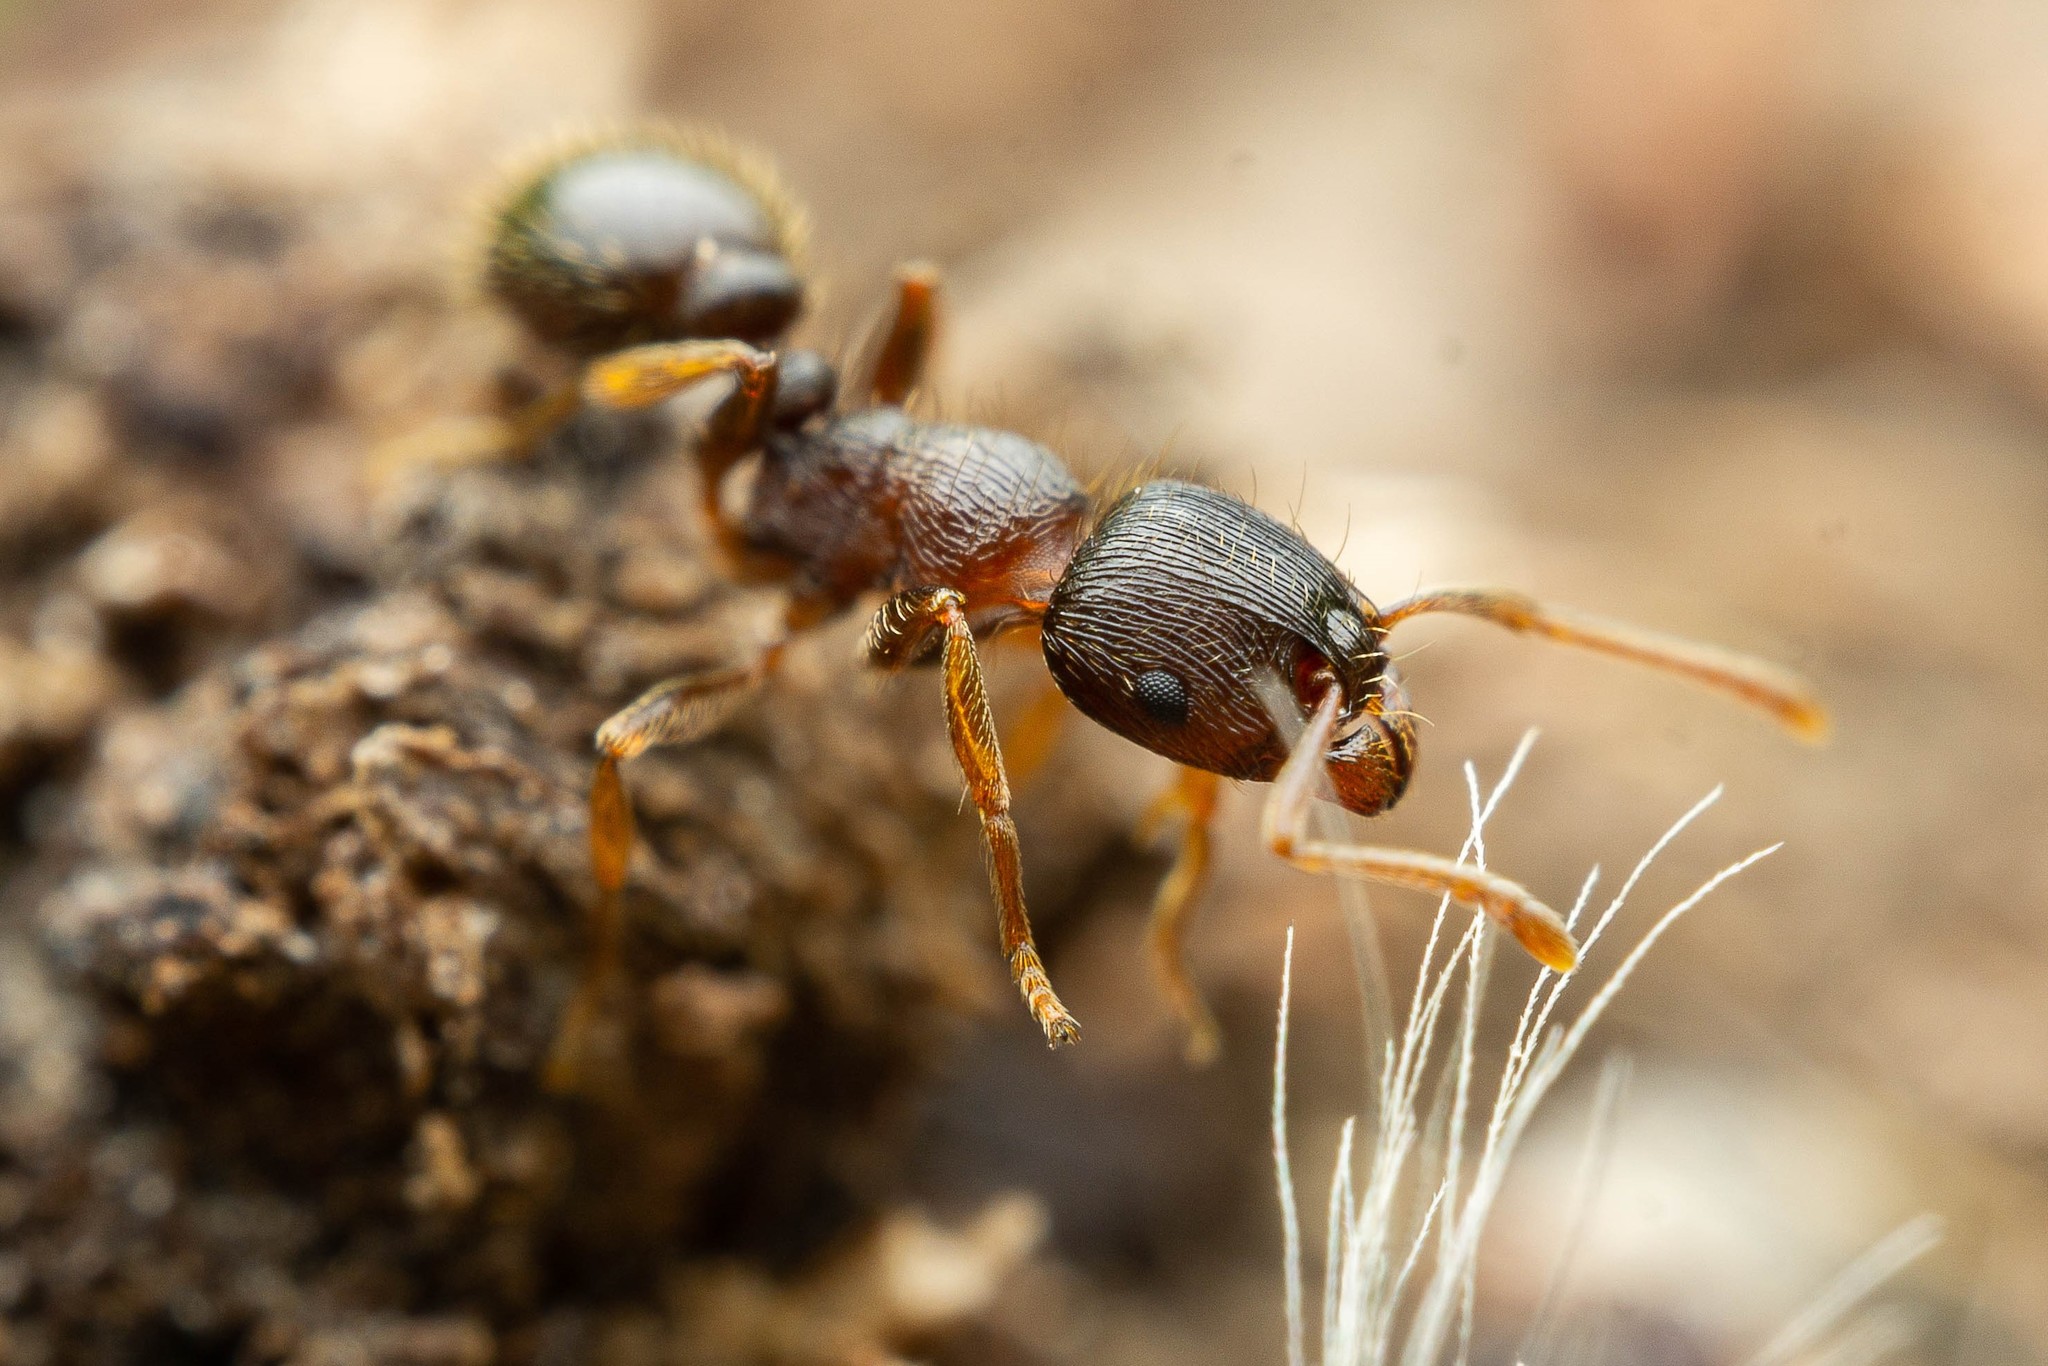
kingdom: Animalia
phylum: Arthropoda
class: Insecta
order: Hymenoptera
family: Formicidae
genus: Tetramorium
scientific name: Tetramorium immigrans
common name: Pavement ant
